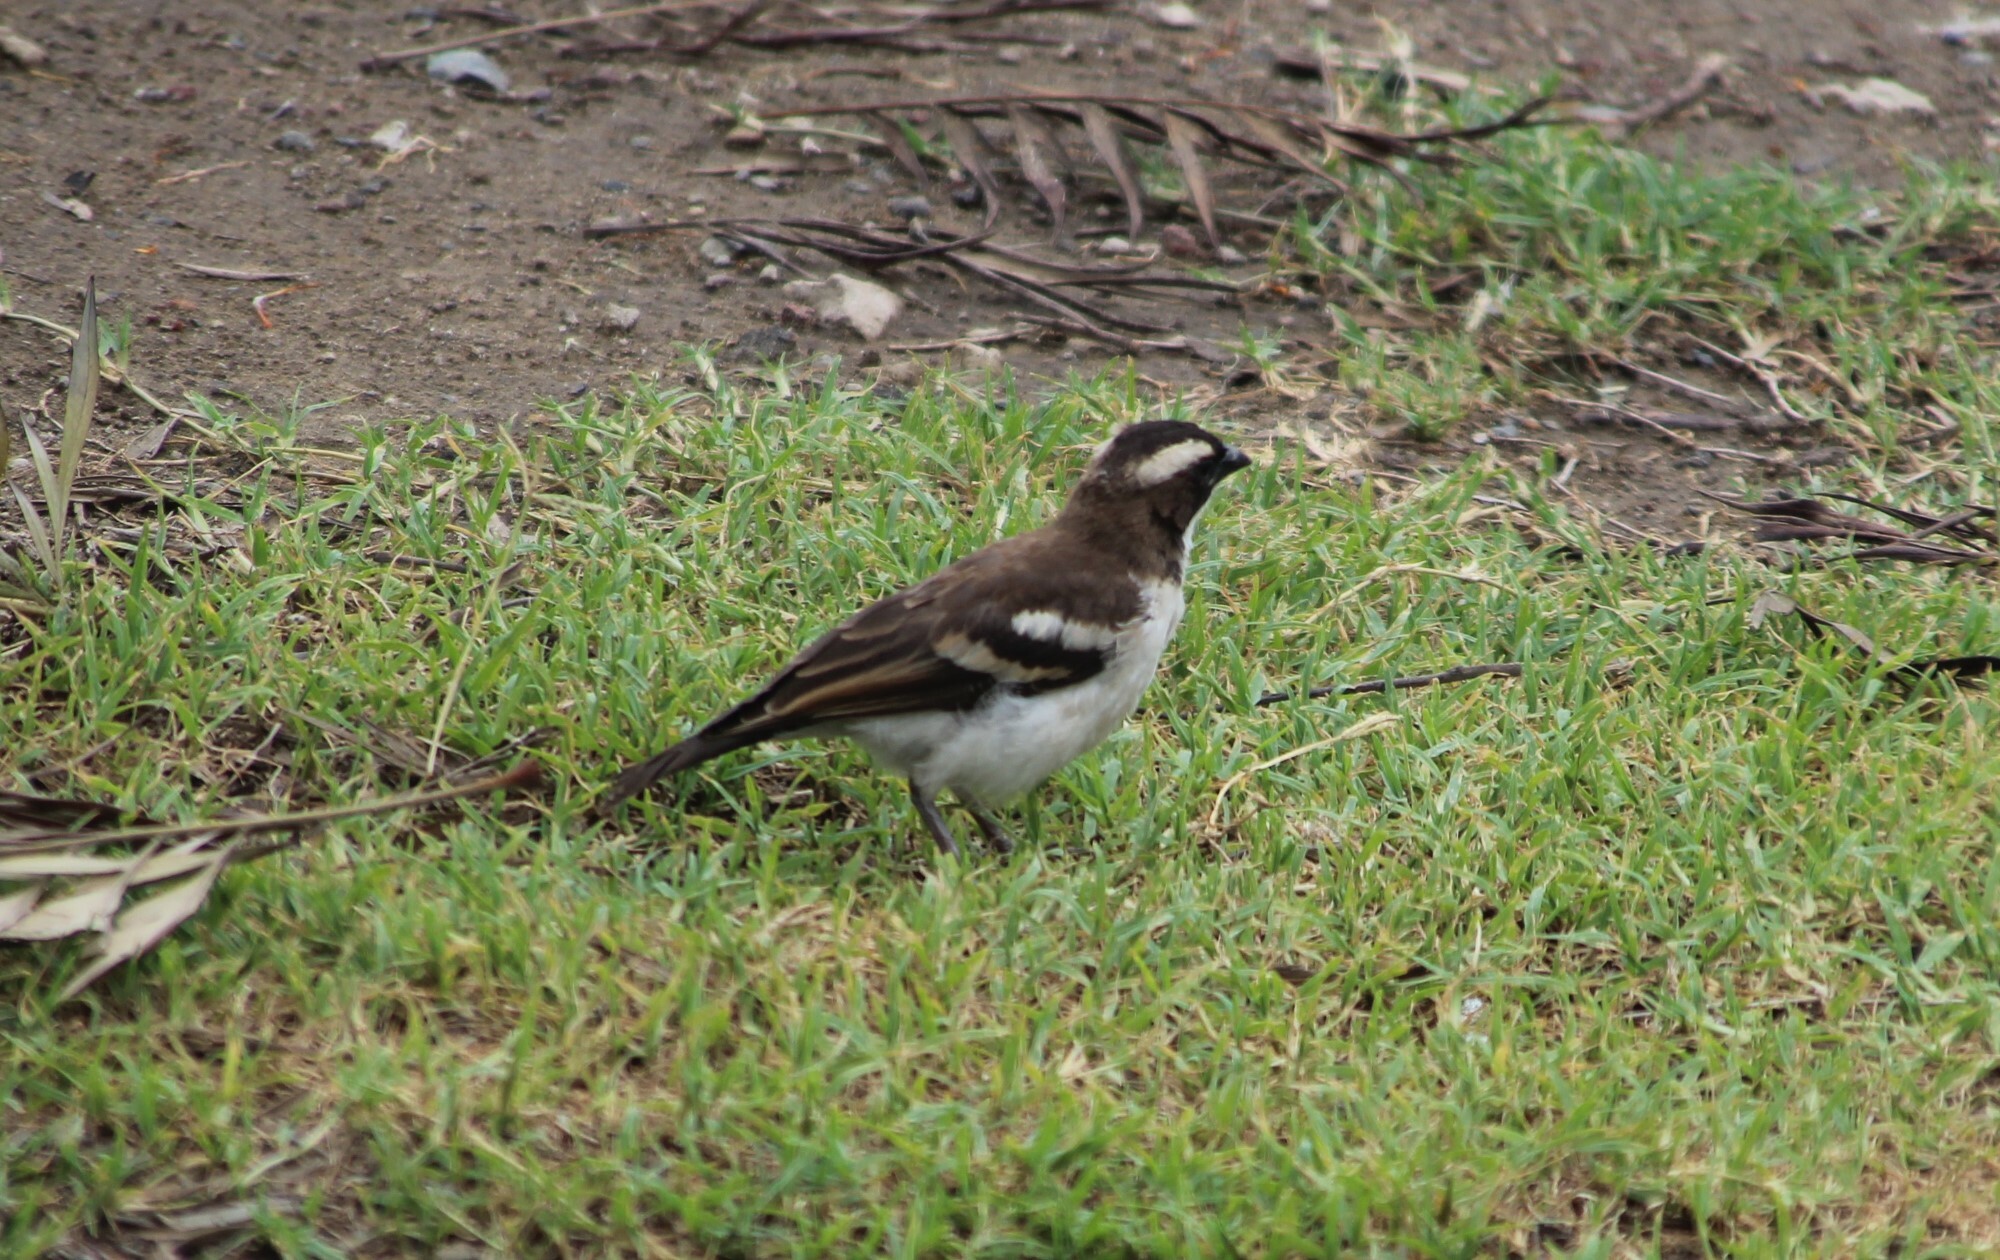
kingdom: Animalia
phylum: Chordata
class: Aves
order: Passeriformes
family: Passeridae
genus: Plocepasser
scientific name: Plocepasser mahali
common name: White-browed sparrow-weaver
